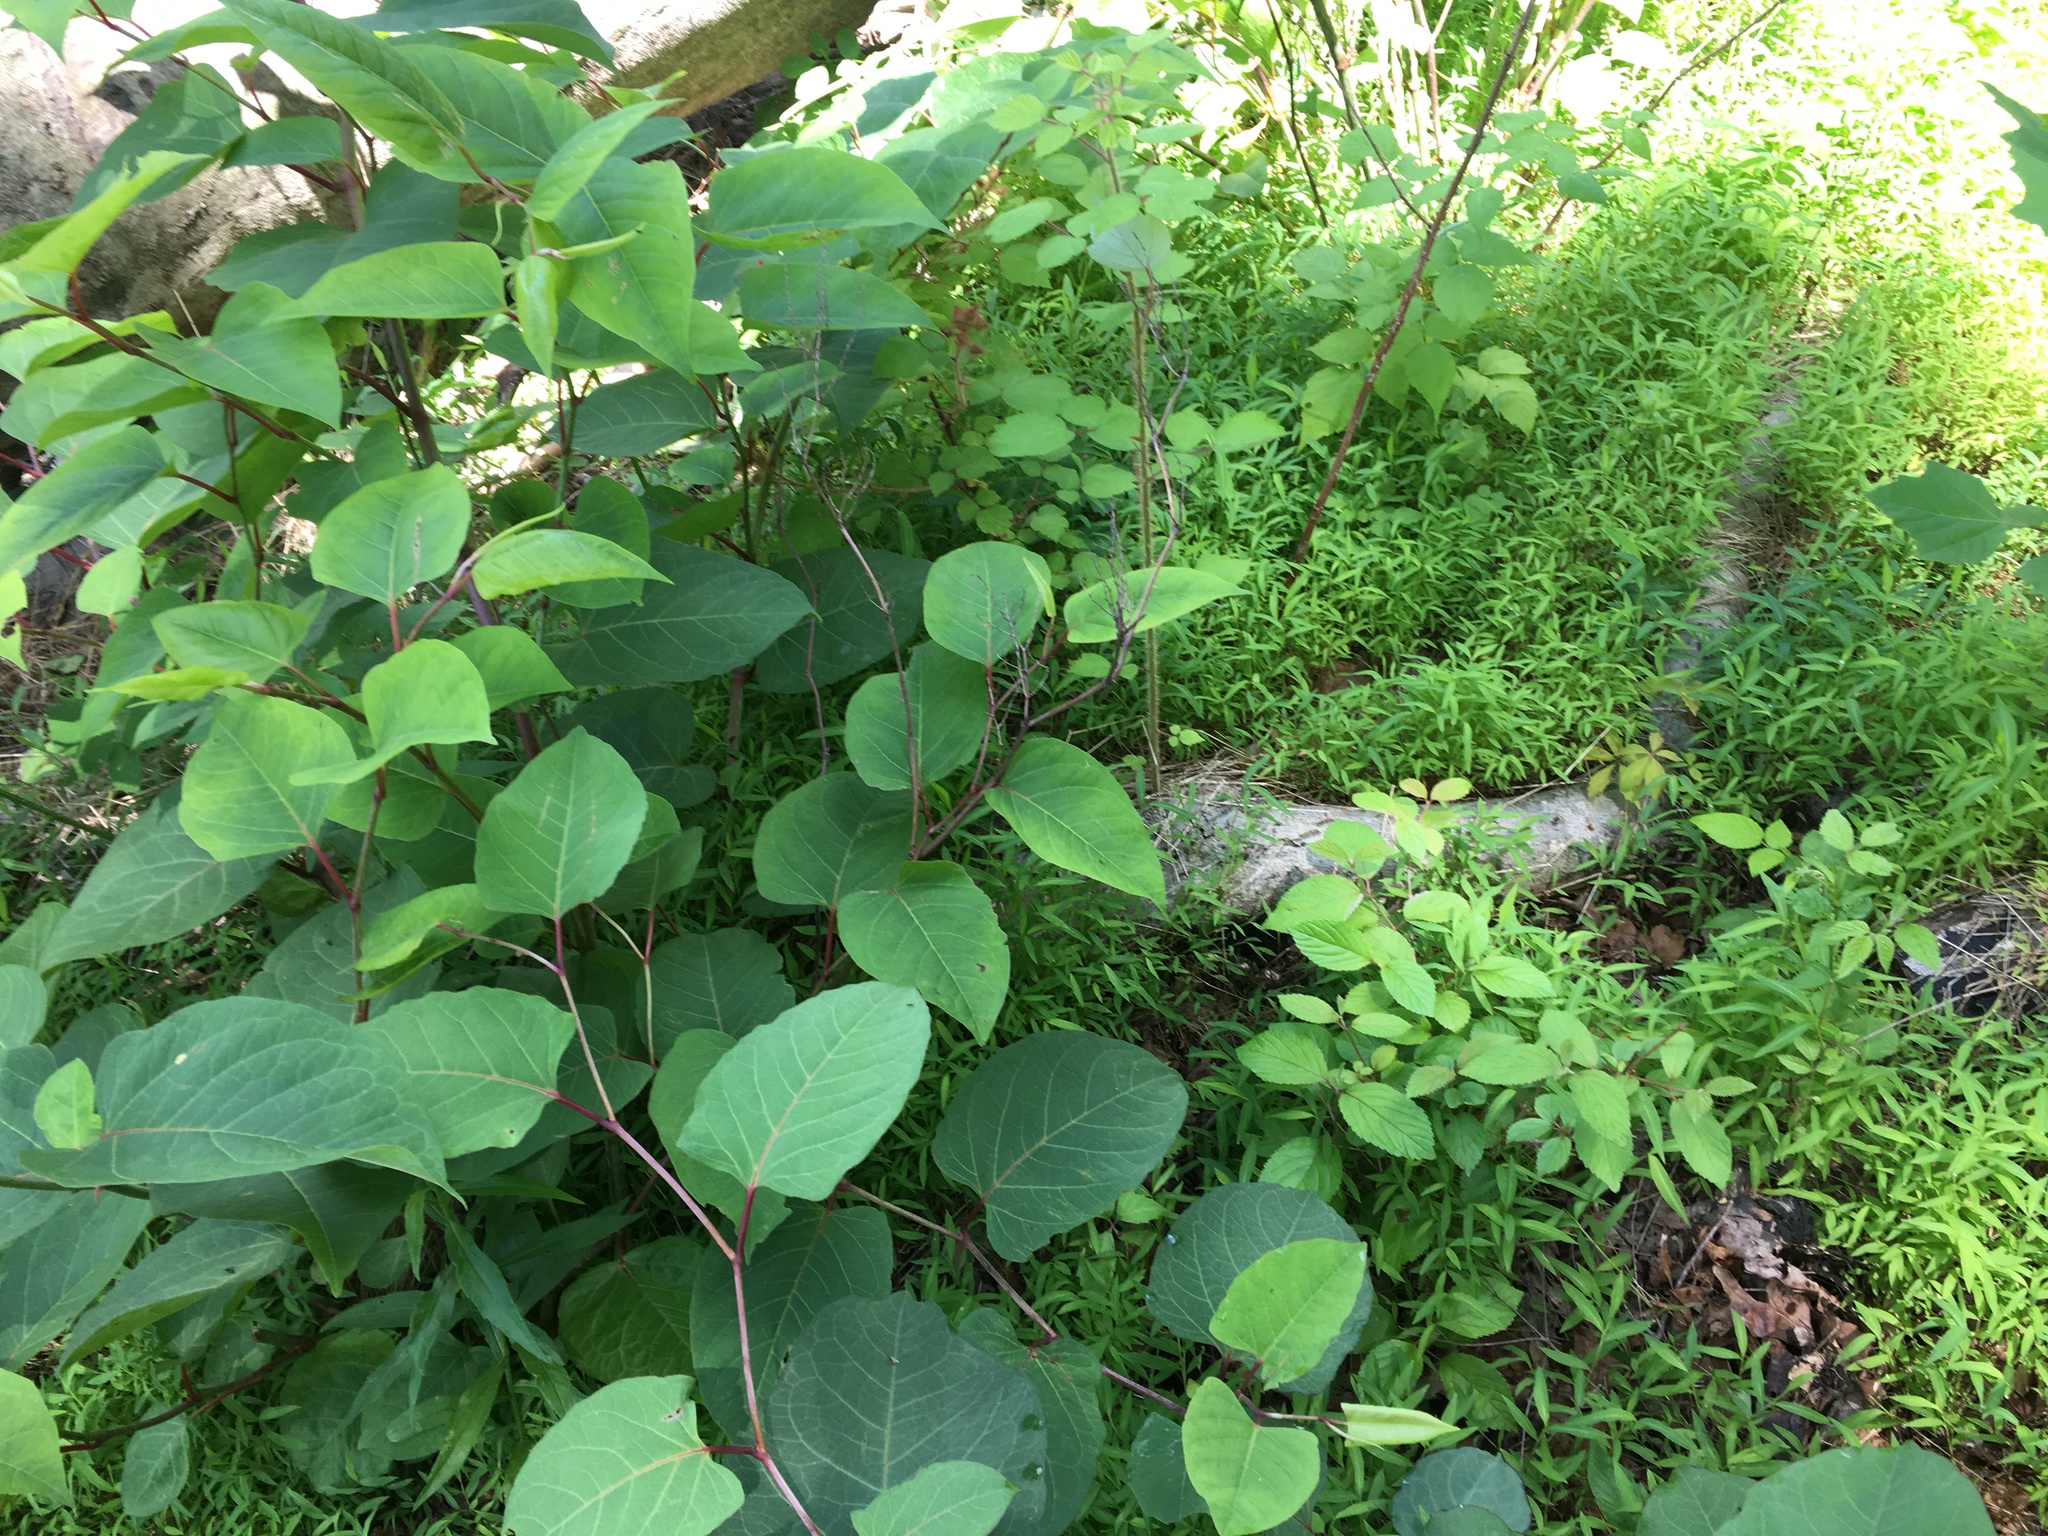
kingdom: Plantae
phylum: Tracheophyta
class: Magnoliopsida
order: Caryophyllales
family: Polygonaceae
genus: Reynoutria
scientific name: Reynoutria japonica
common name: Japanese knotweed
